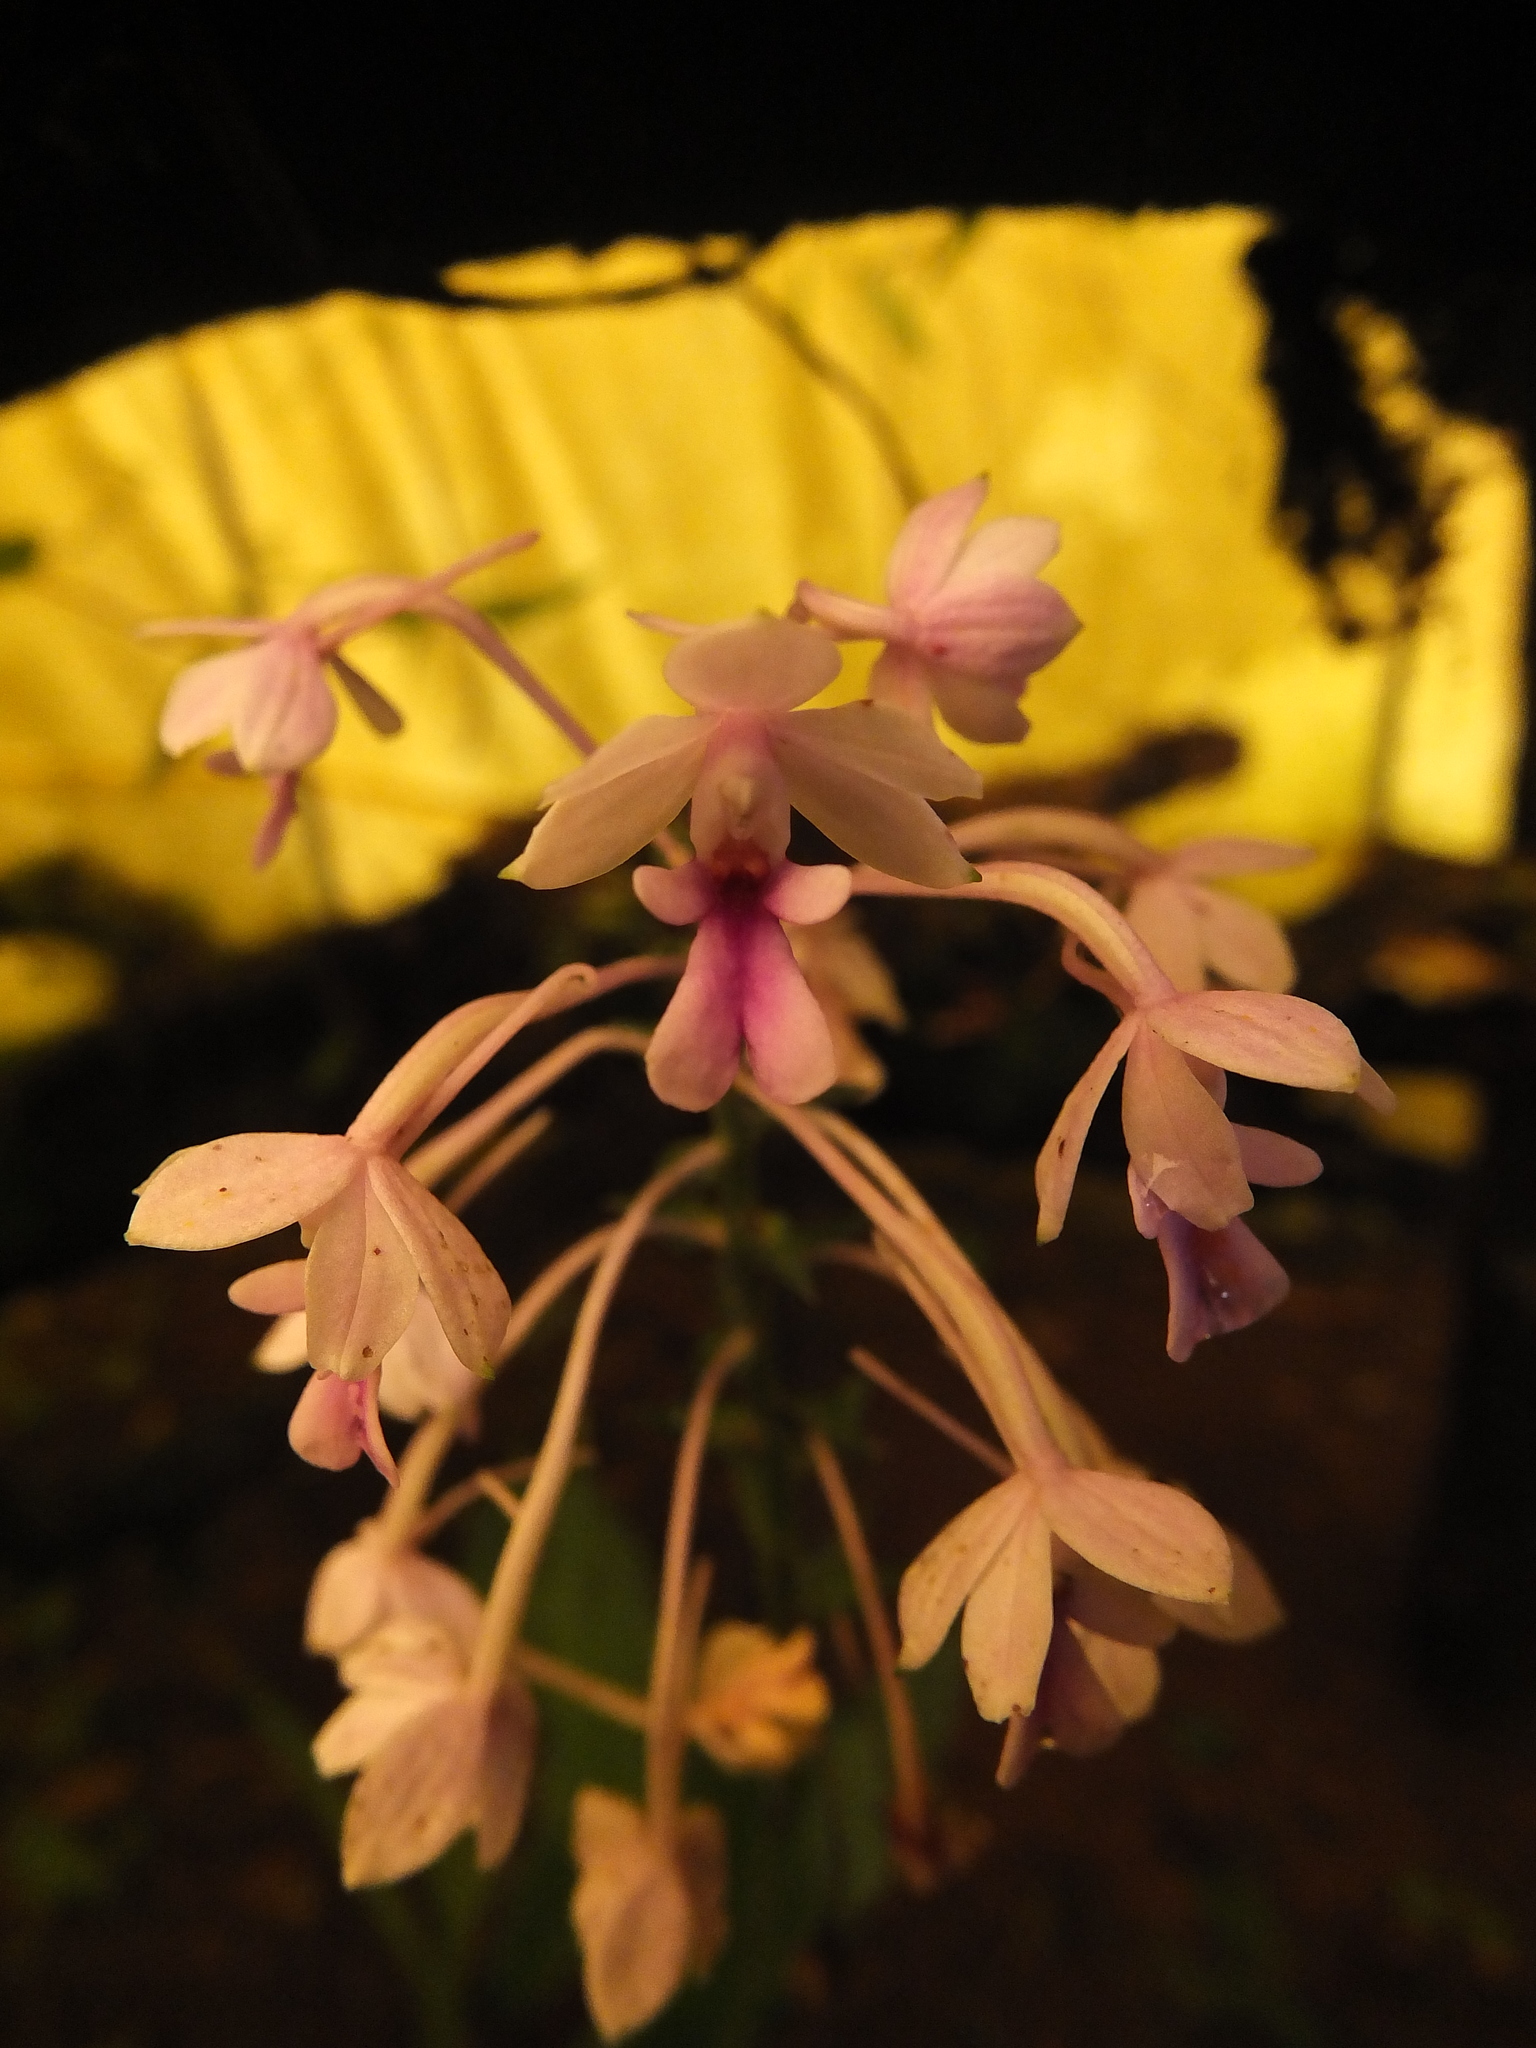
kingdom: Plantae
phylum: Tracheophyta
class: Liliopsida
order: Asparagales
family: Orchidaceae
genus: Calanthe
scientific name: Calanthe masuca
